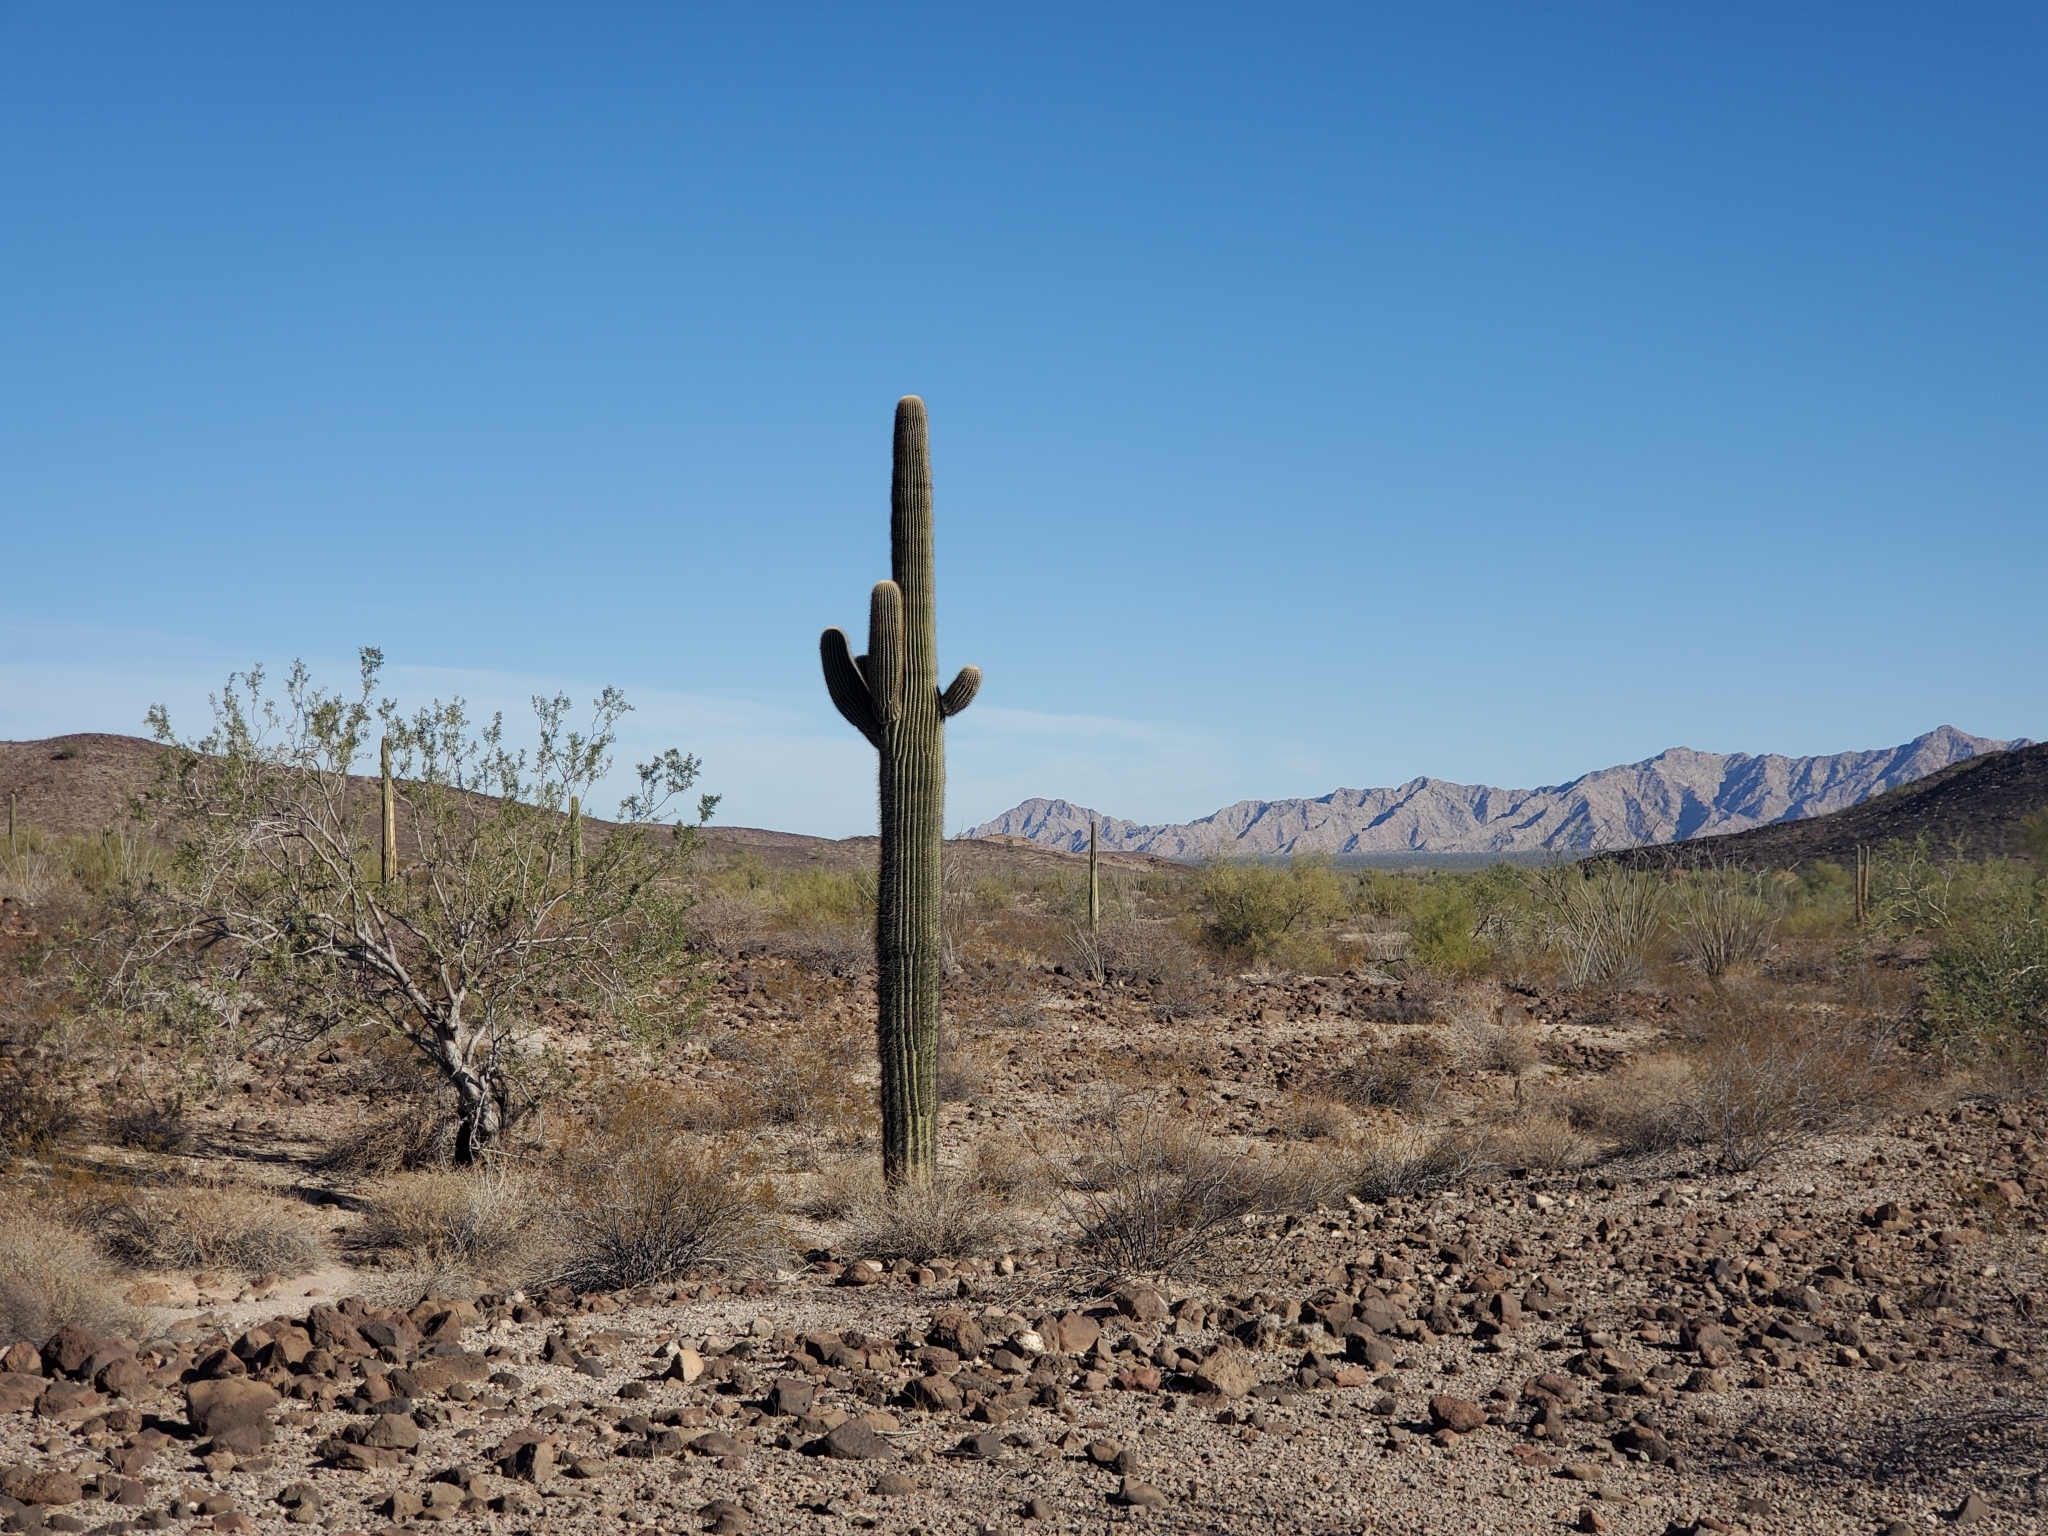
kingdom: Plantae
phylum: Tracheophyta
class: Magnoliopsida
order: Caryophyllales
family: Cactaceae
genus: Carnegiea
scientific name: Carnegiea gigantea
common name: Saguaro
